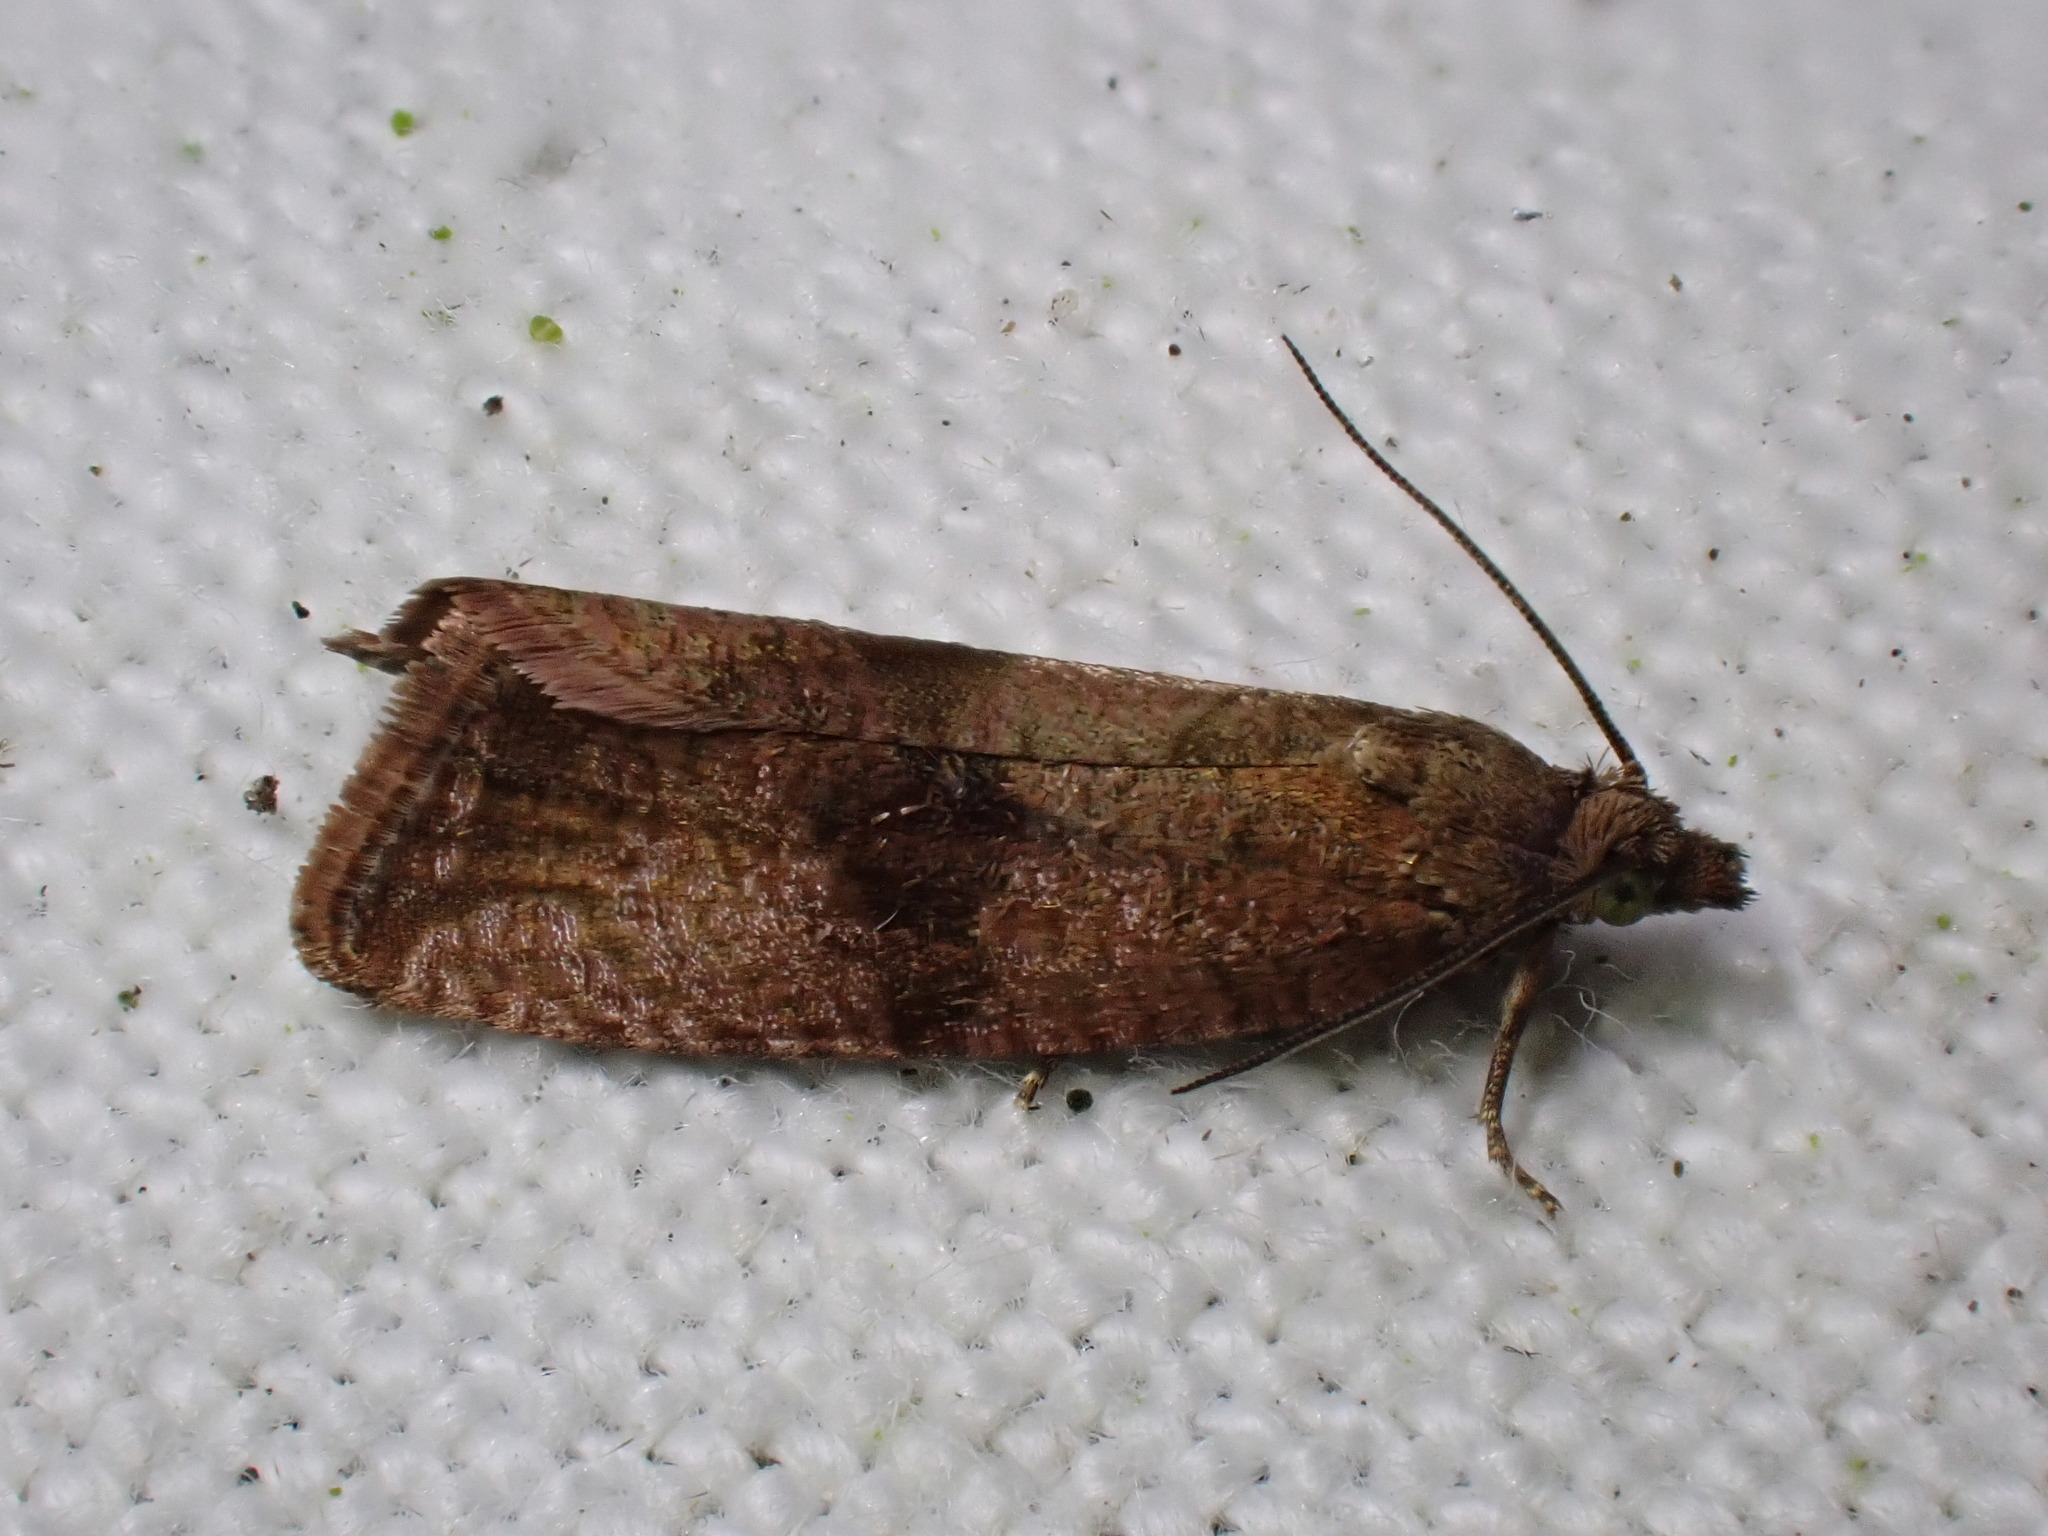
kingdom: Animalia
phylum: Arthropoda
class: Insecta
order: Lepidoptera
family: Tortricidae
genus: Celypha
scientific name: Celypha striana
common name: Barred marble
